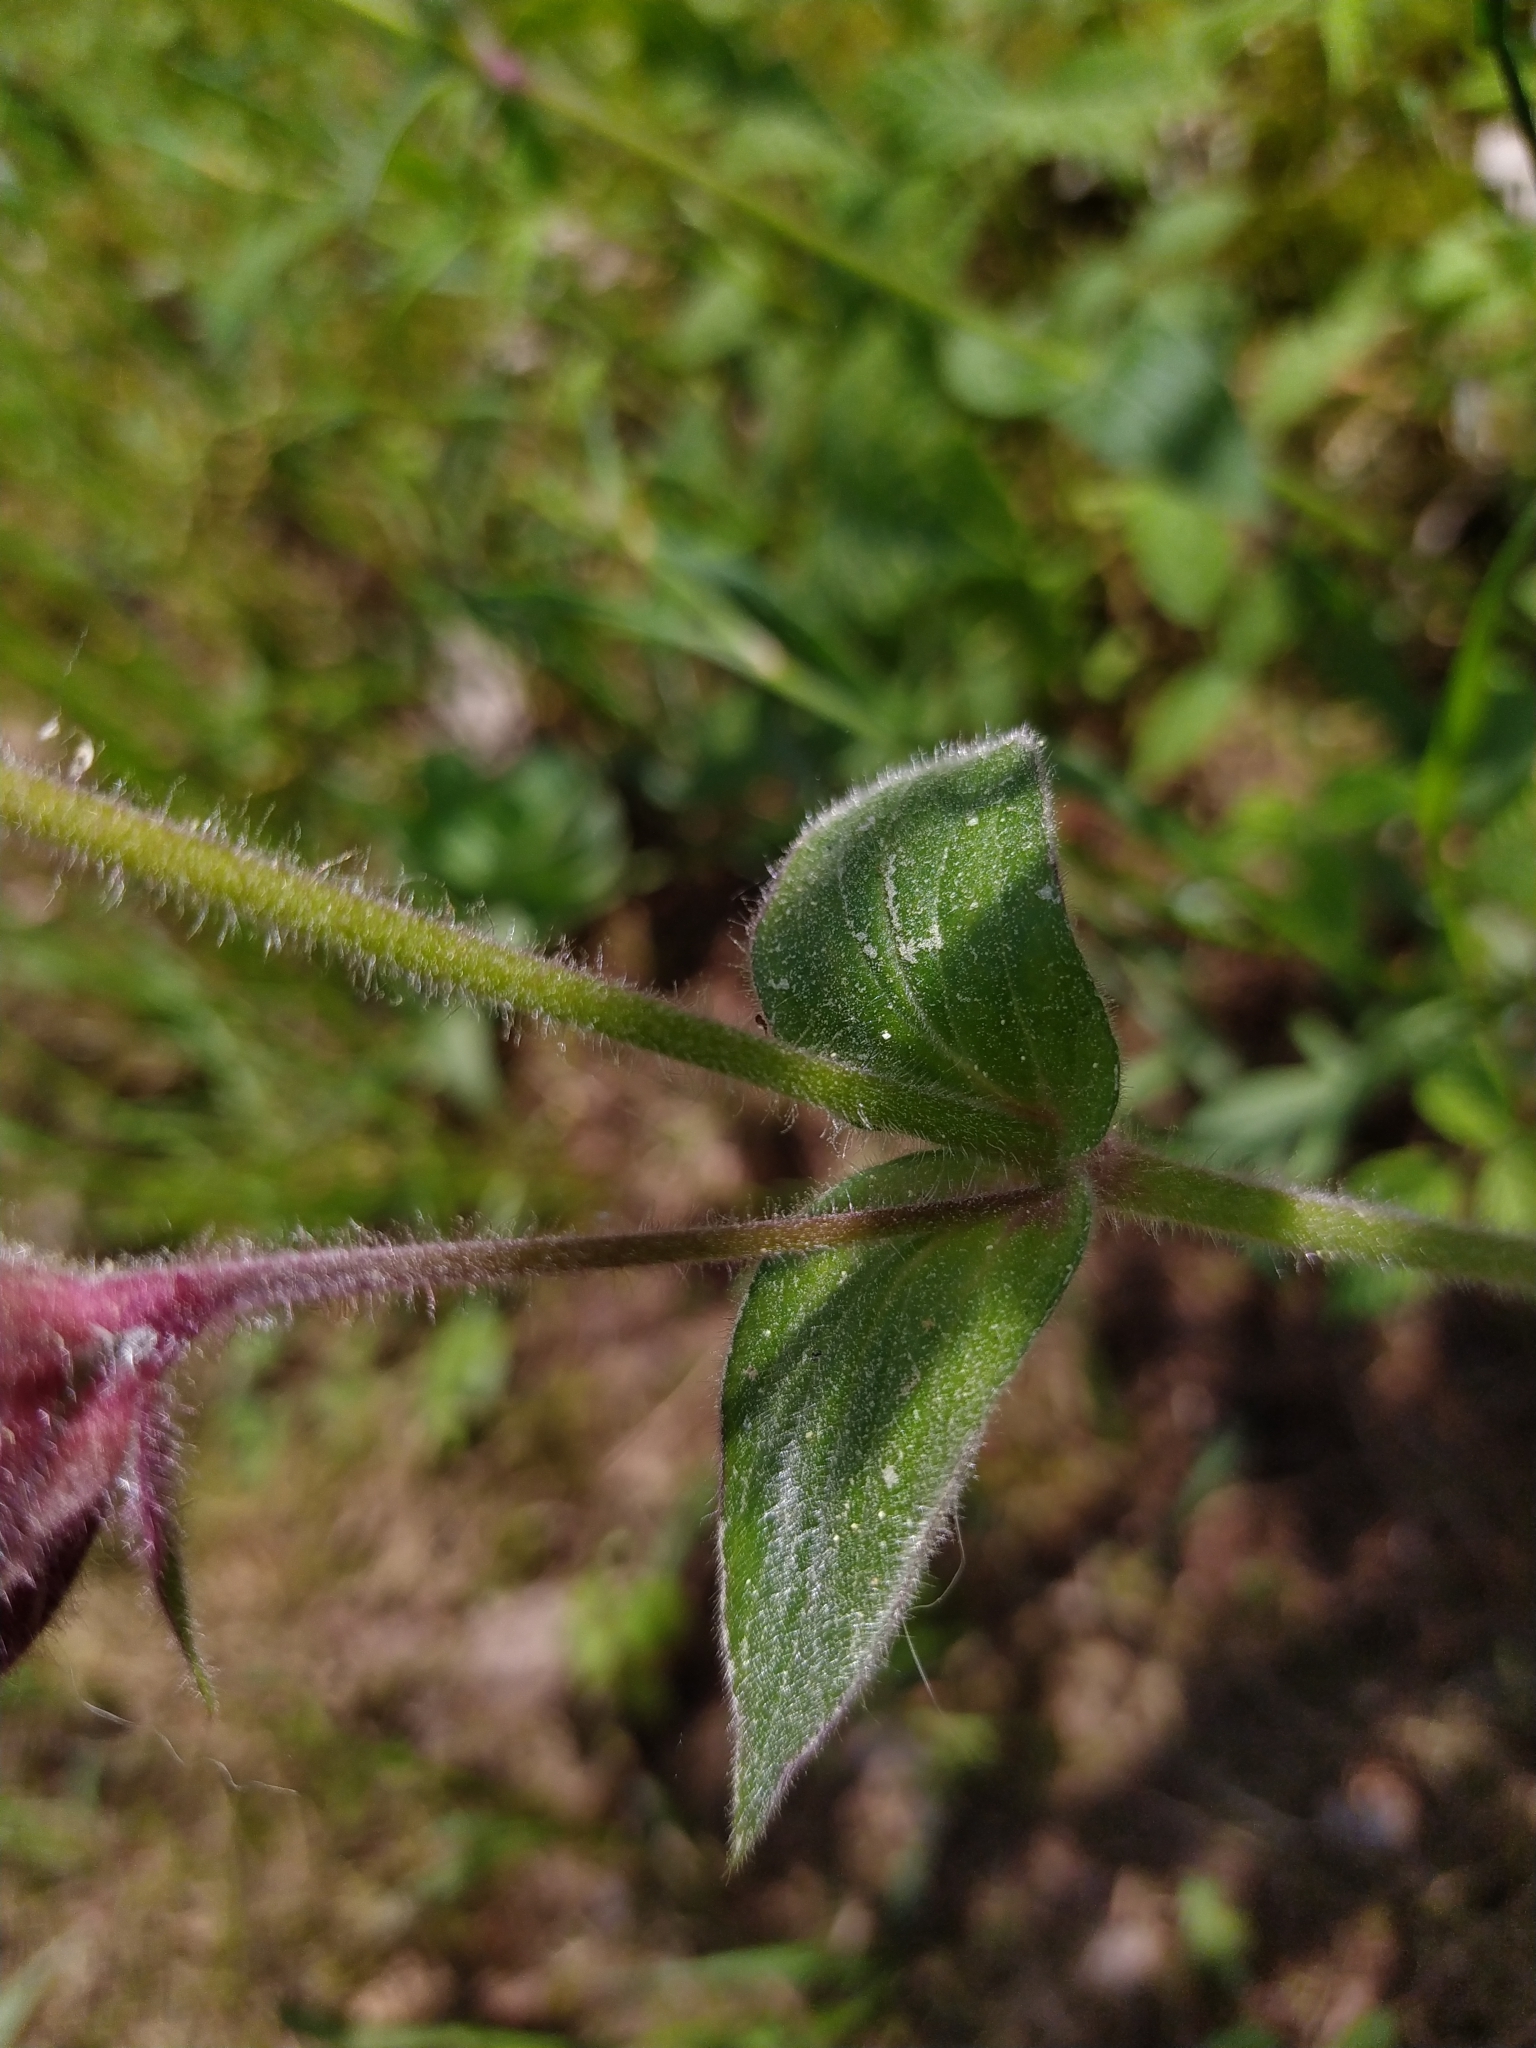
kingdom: Plantae
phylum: Tracheophyta
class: Magnoliopsida
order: Caryophyllales
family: Caryophyllaceae
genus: Silene
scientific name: Silene dioica
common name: Red campion
